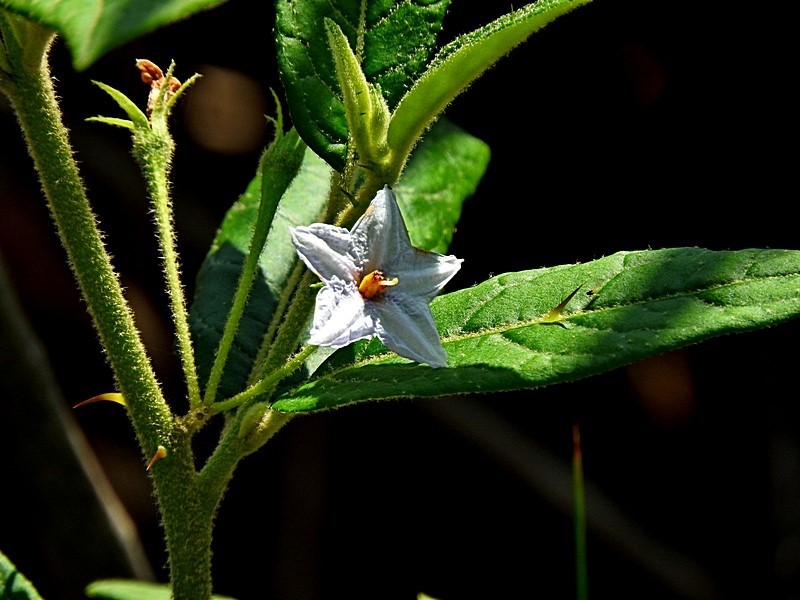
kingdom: Plantae
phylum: Tracheophyta
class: Magnoliopsida
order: Solanales
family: Solanaceae
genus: Solanum
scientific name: Solanum stelligerum
